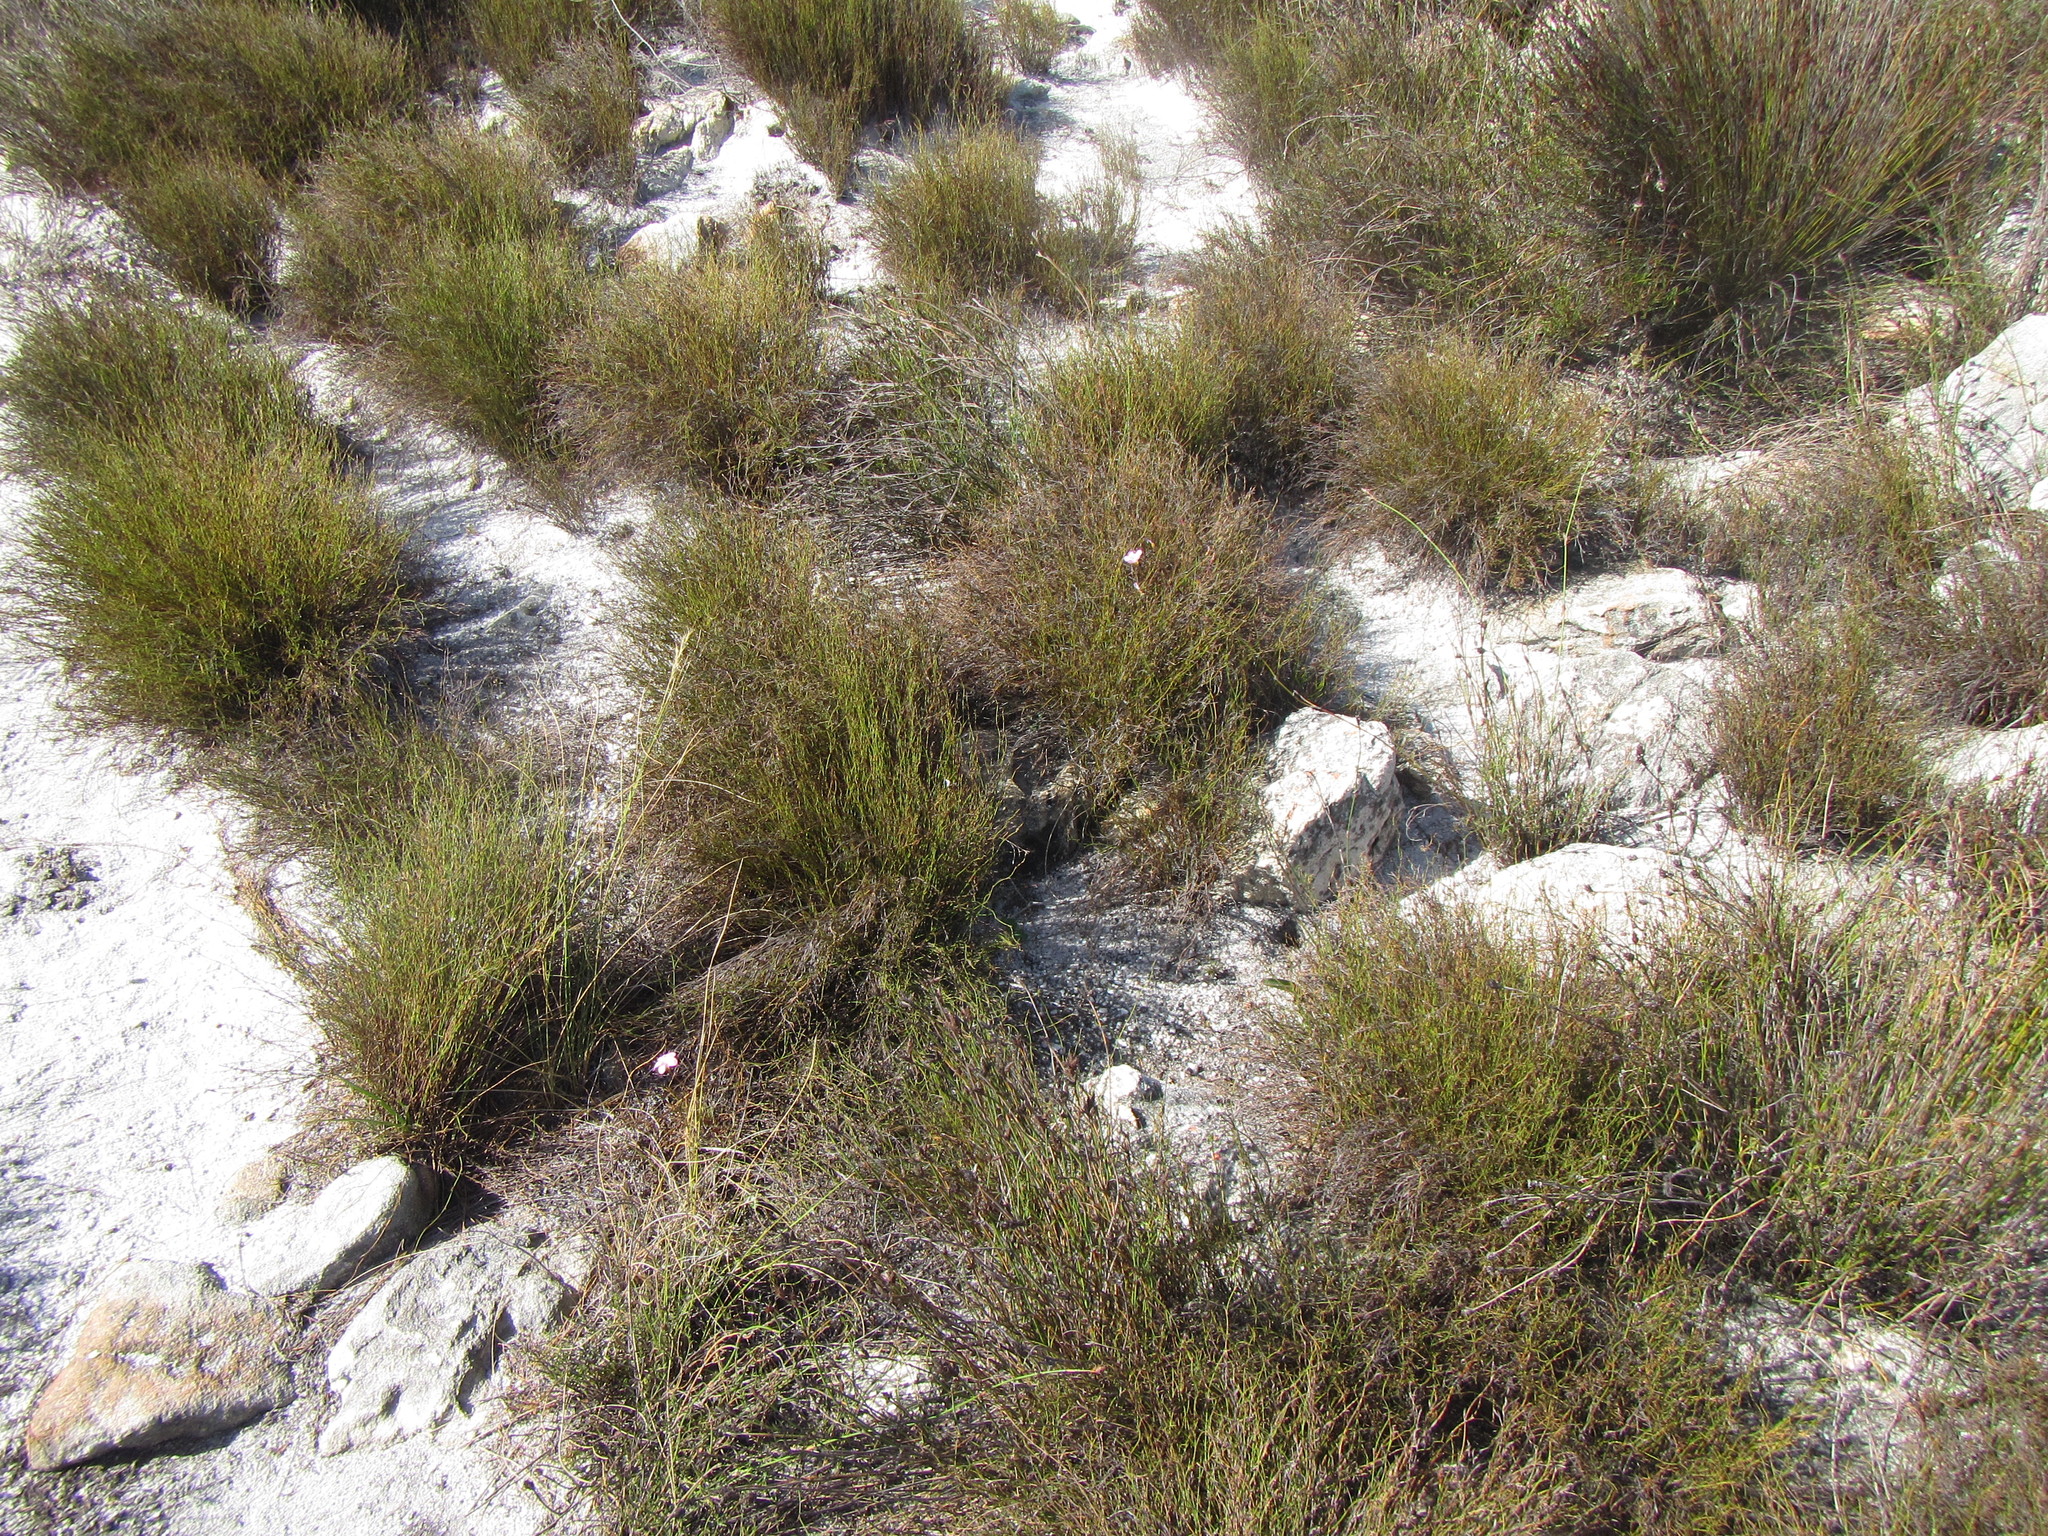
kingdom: Plantae
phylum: Tracheophyta
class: Magnoliopsida
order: Oxalidales
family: Oxalidaceae
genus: Oxalis
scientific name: Oxalis polyphylla
